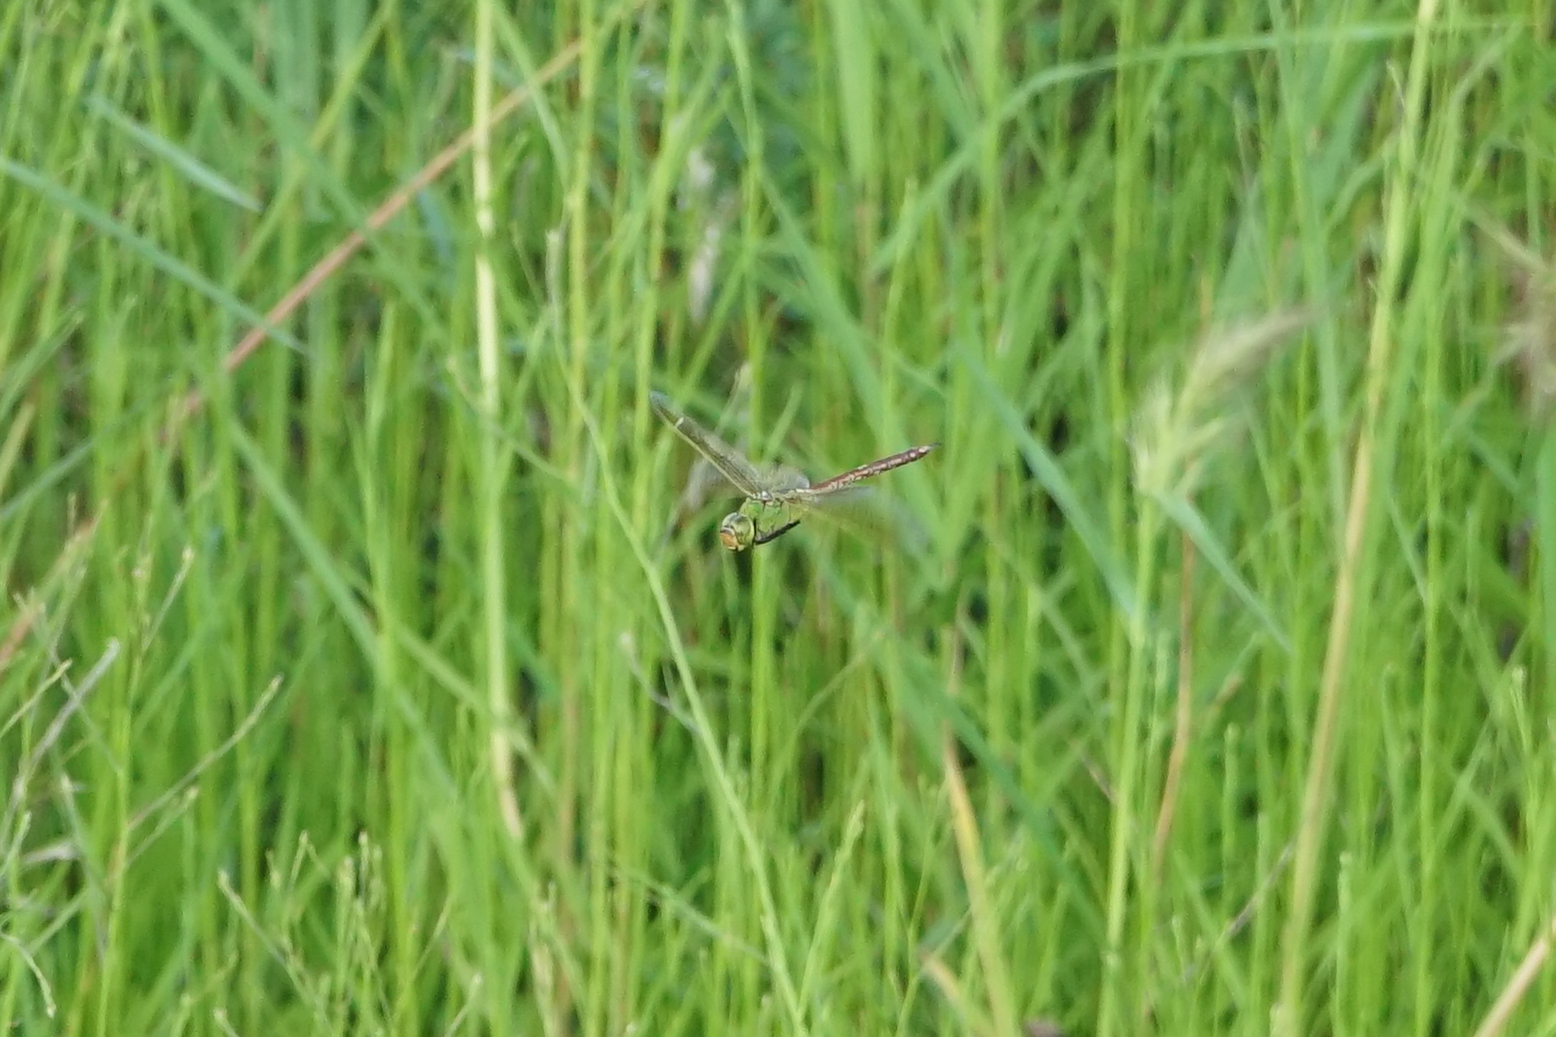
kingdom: Animalia
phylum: Arthropoda
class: Insecta
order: Odonata
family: Aeshnidae
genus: Anax
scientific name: Anax julius
